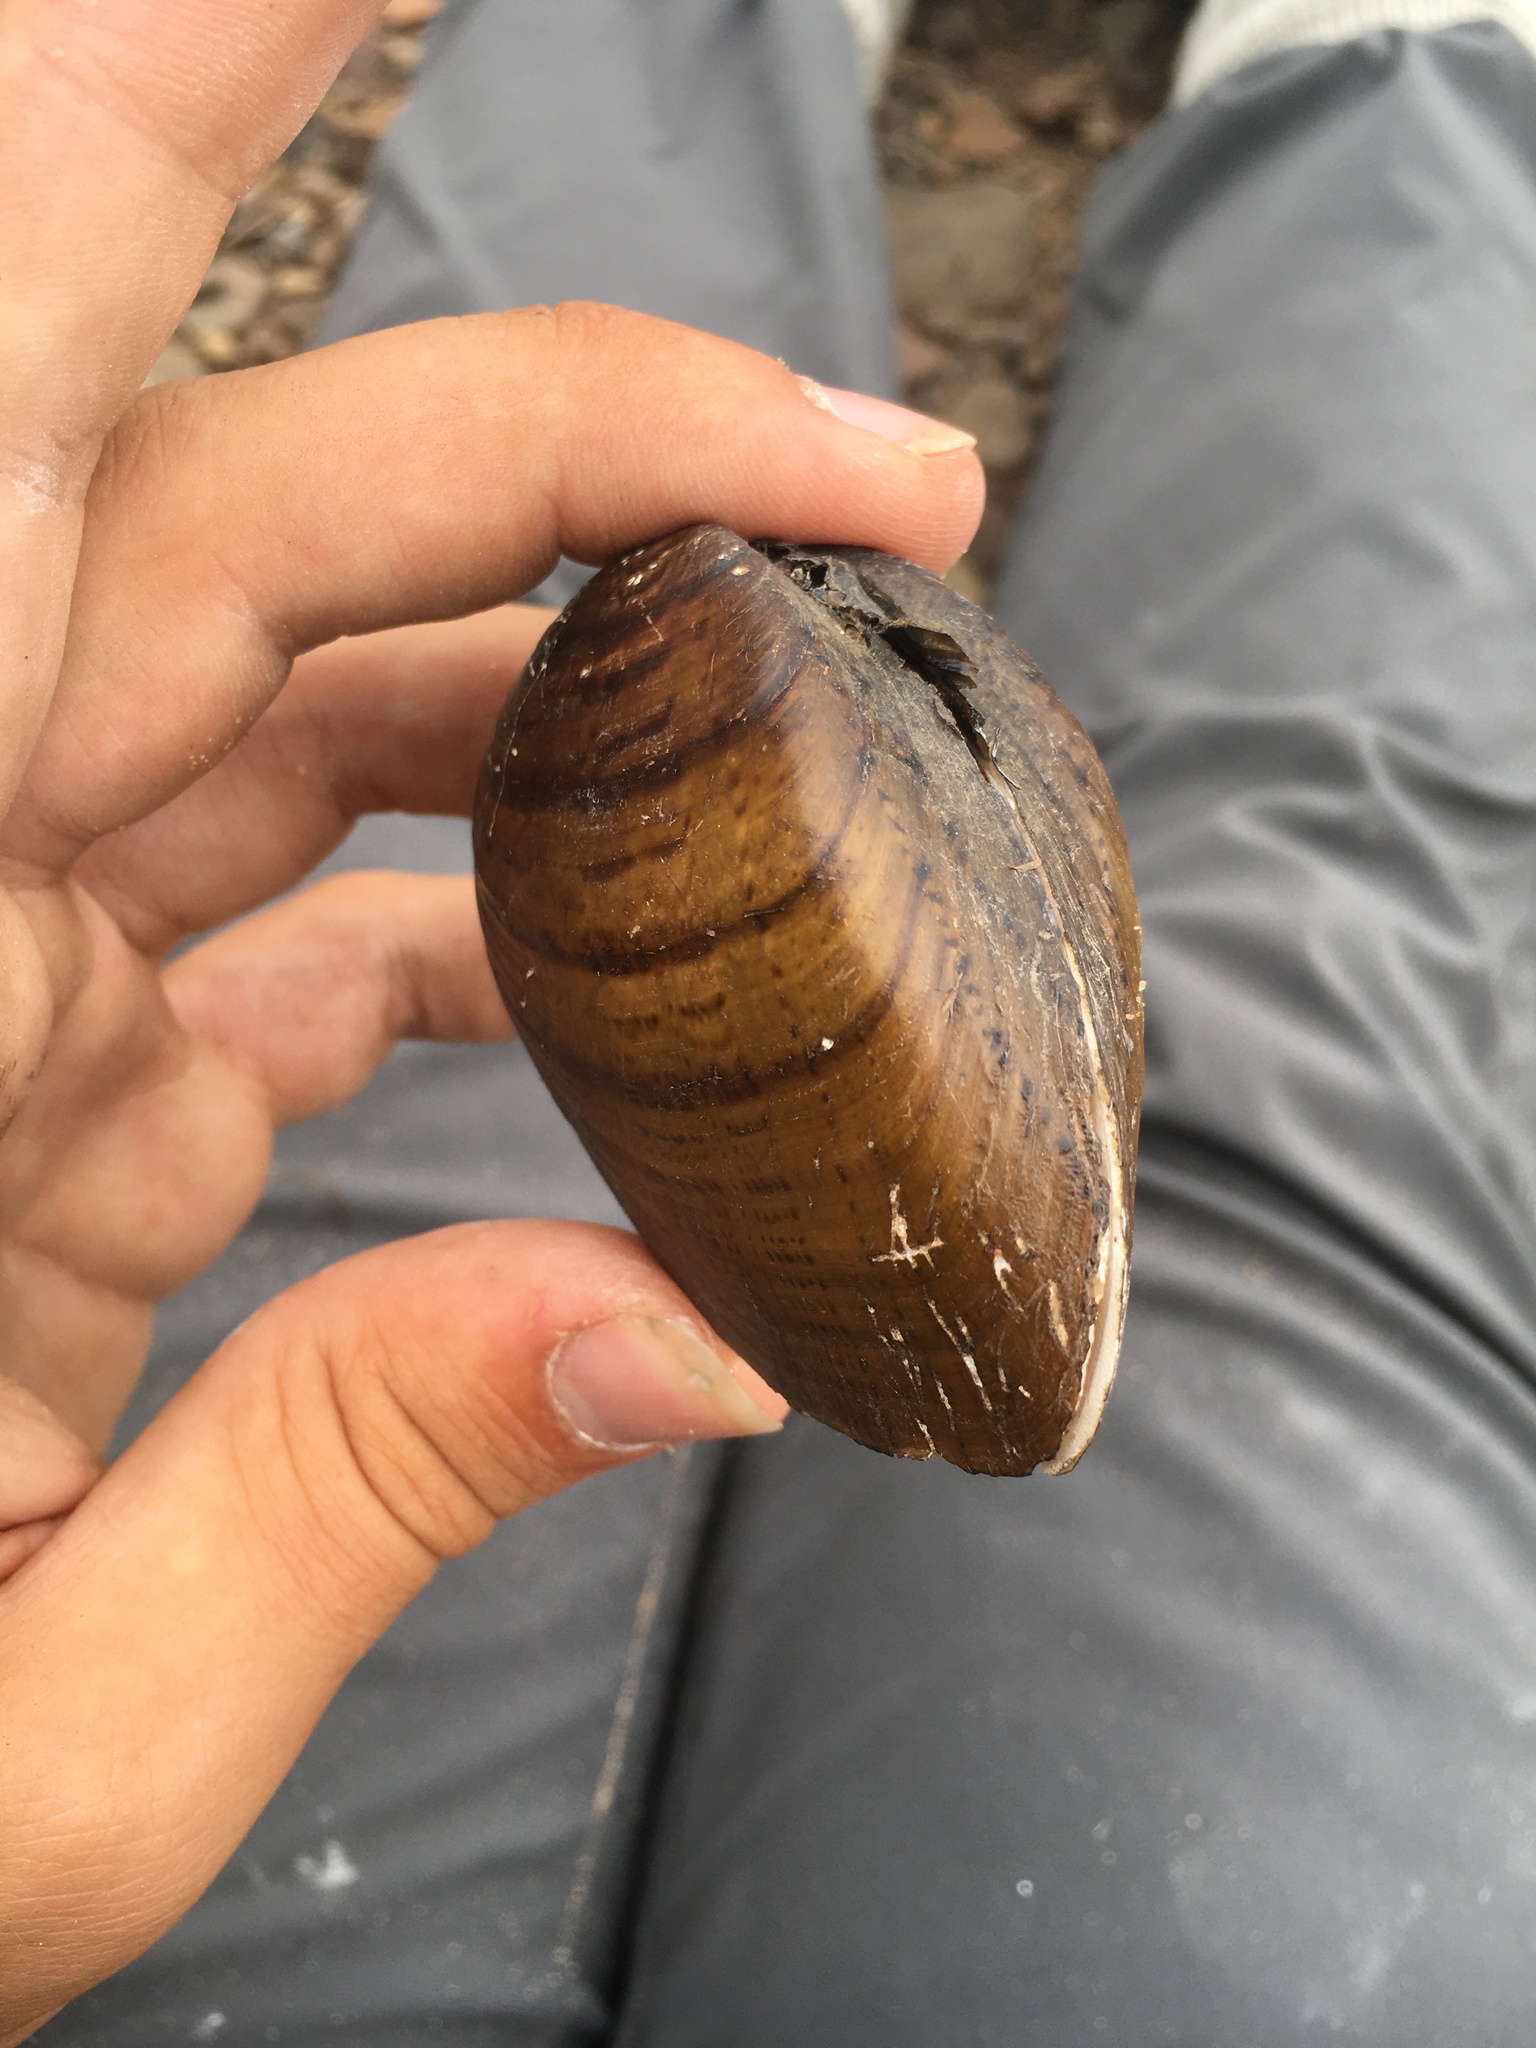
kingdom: Animalia
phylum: Mollusca
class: Bivalvia
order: Unionida
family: Unionidae
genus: Ellipsaria
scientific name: Ellipsaria lineolata
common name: Butterfly
